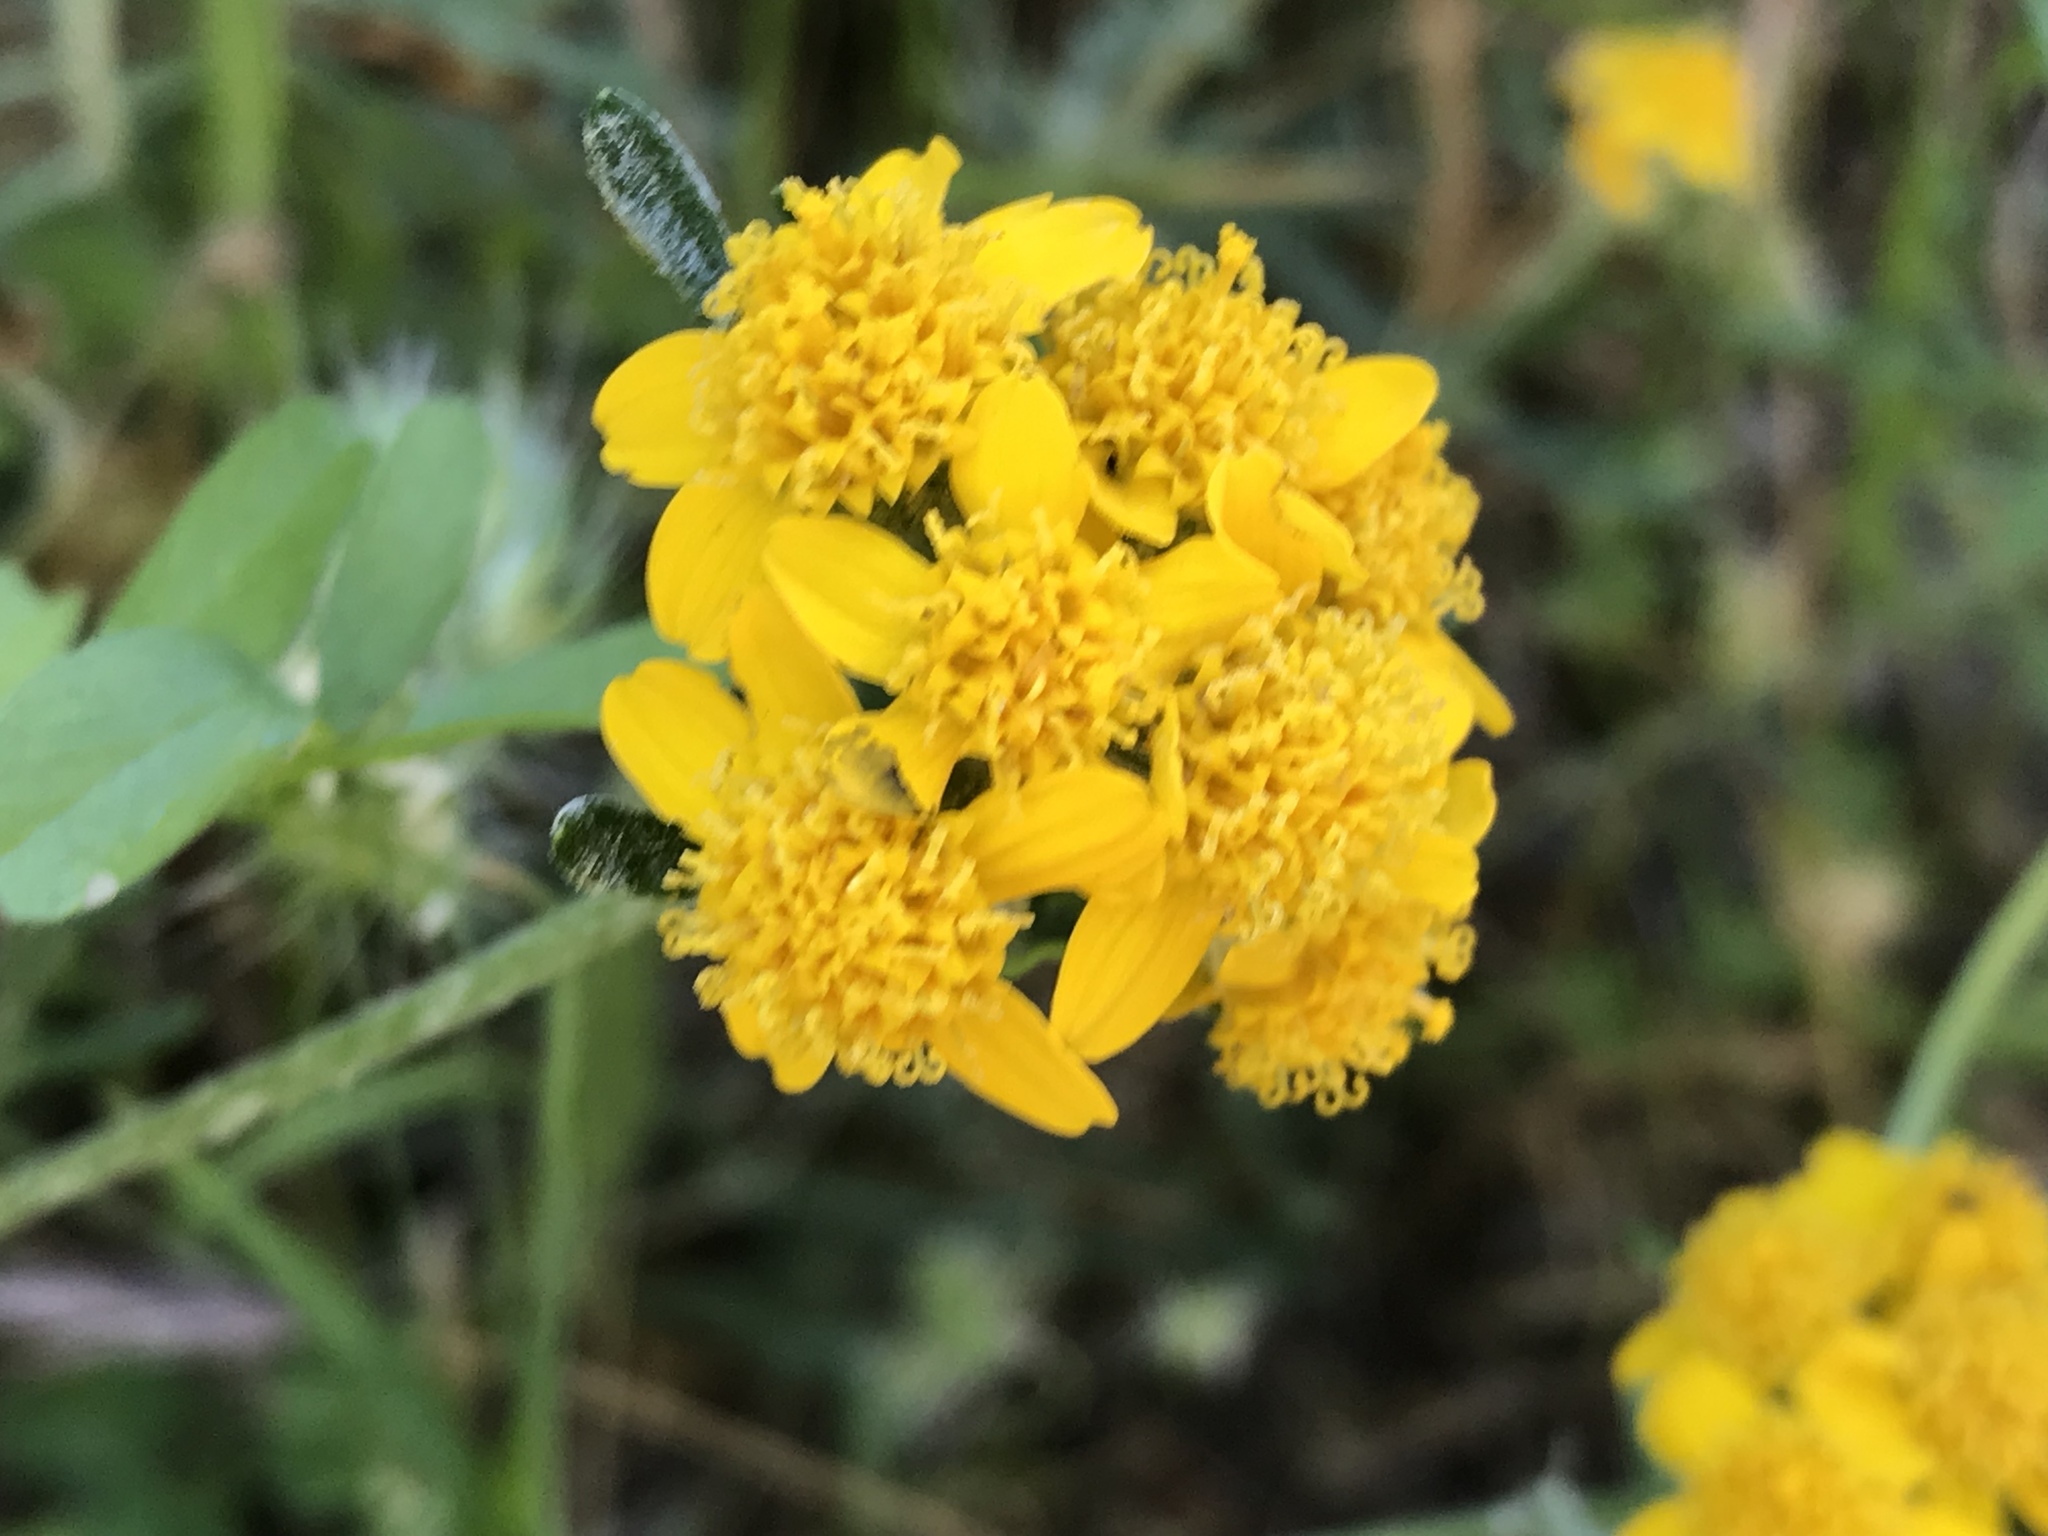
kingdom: Plantae
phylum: Tracheophyta
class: Magnoliopsida
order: Asterales
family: Asteraceae
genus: Eriophyllum
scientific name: Eriophyllum confertiflorum
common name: Golden-yarrow
